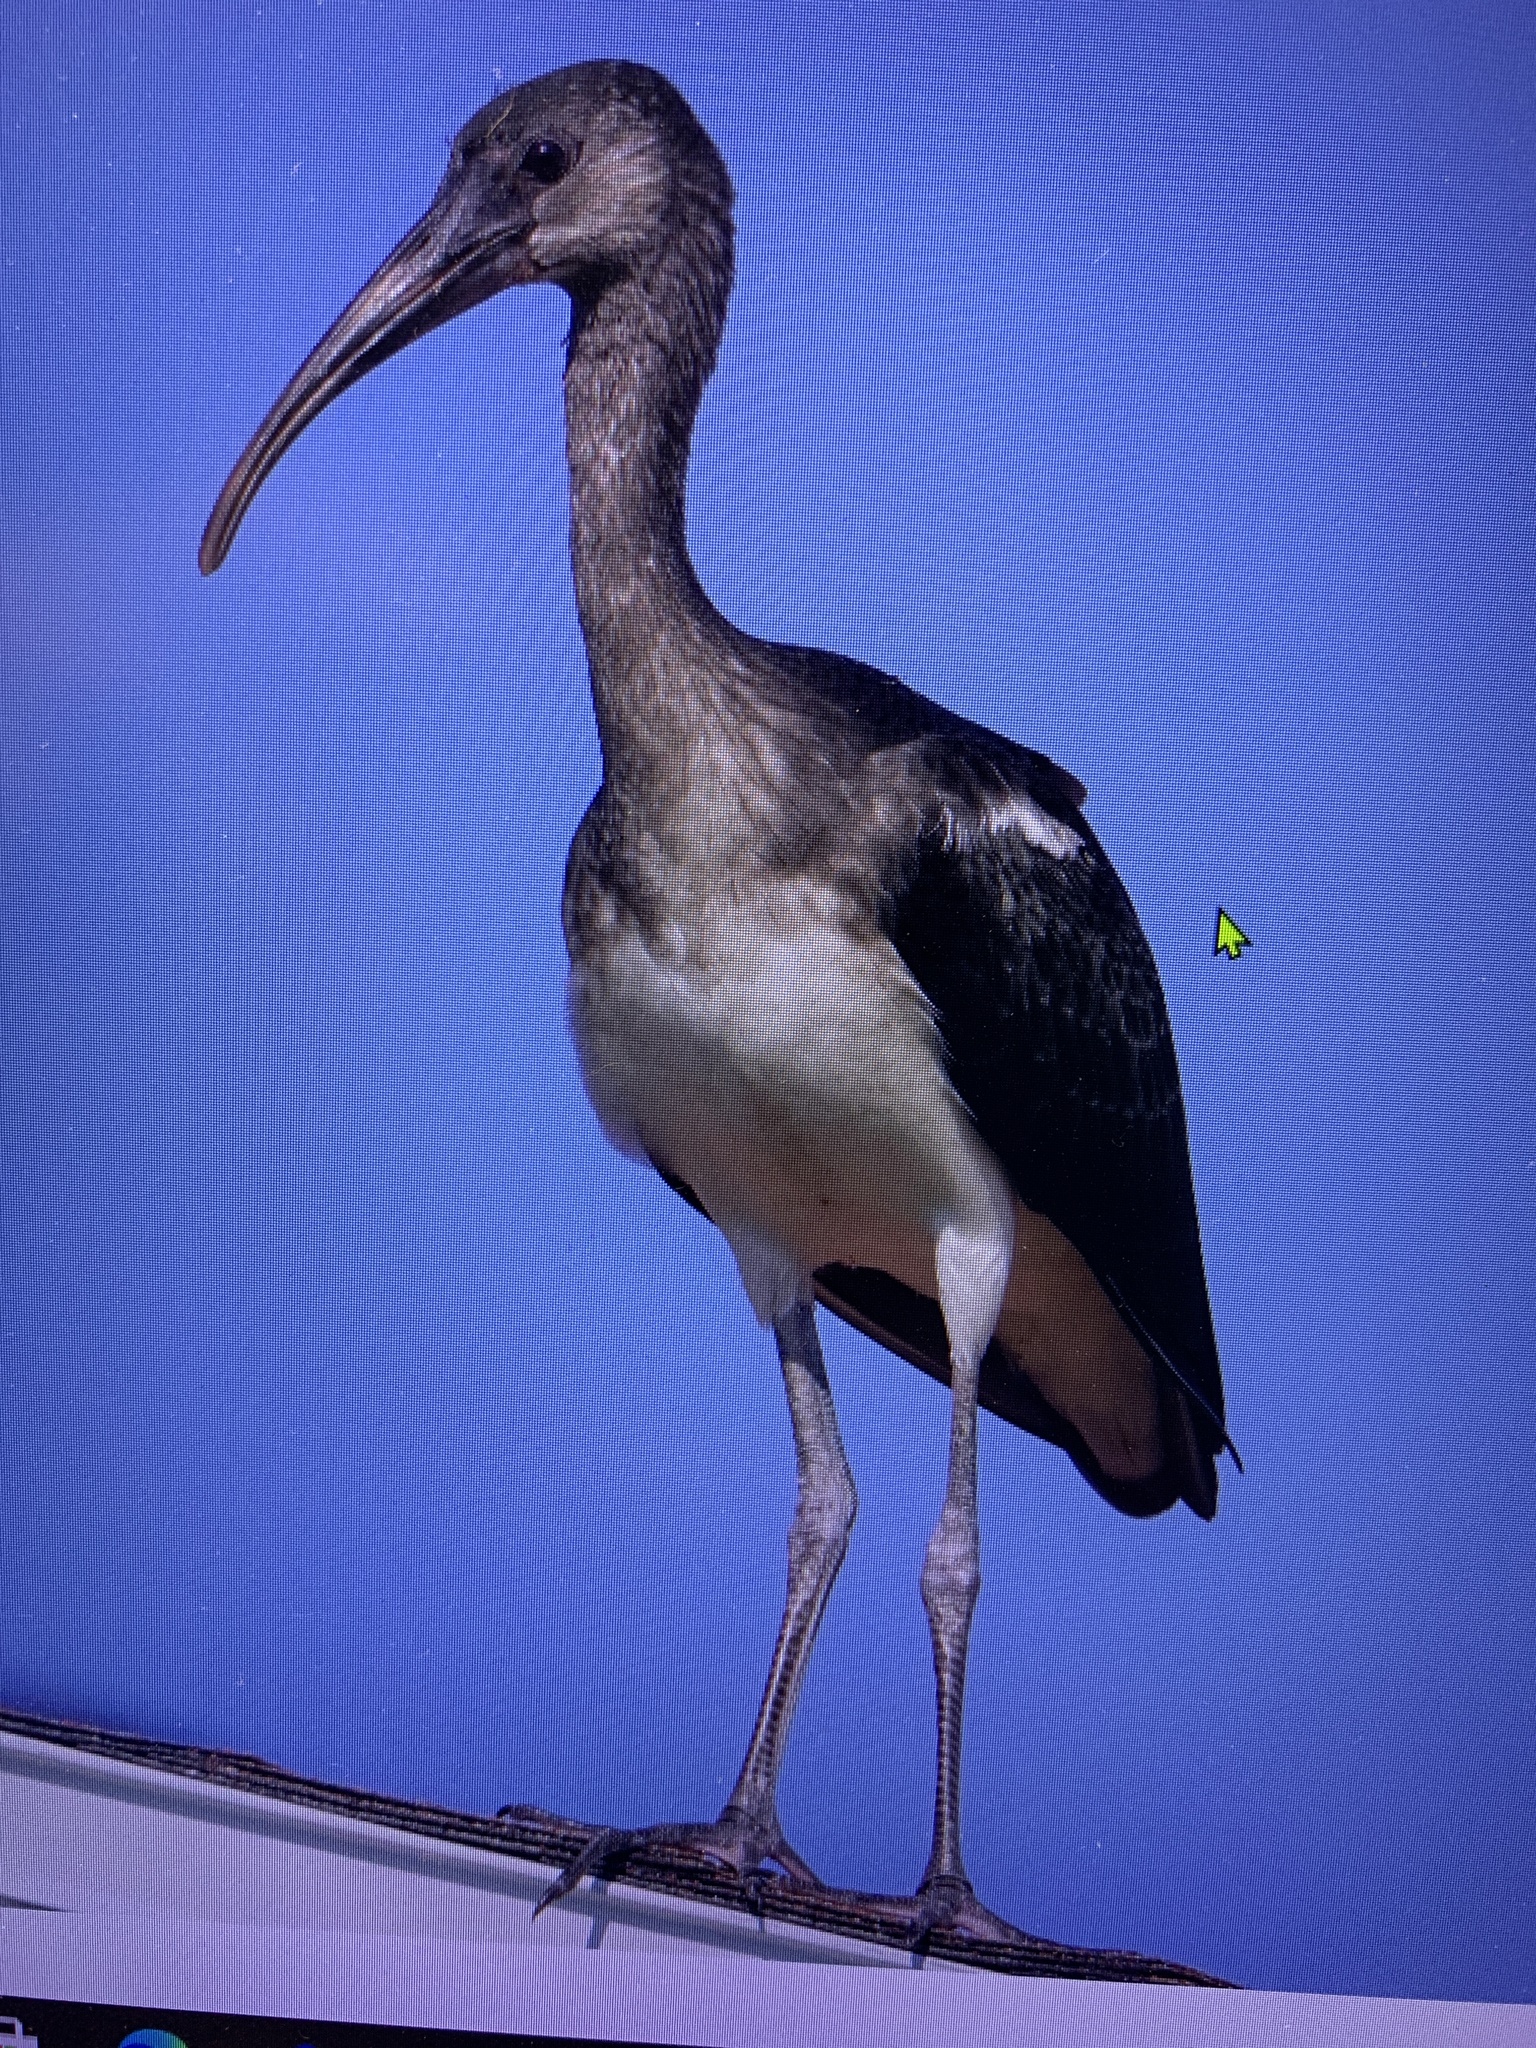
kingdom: Animalia
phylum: Chordata
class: Aves
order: Pelecaniformes
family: Threskiornithidae
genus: Eudocimus
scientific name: Eudocimus albus
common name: White ibis
